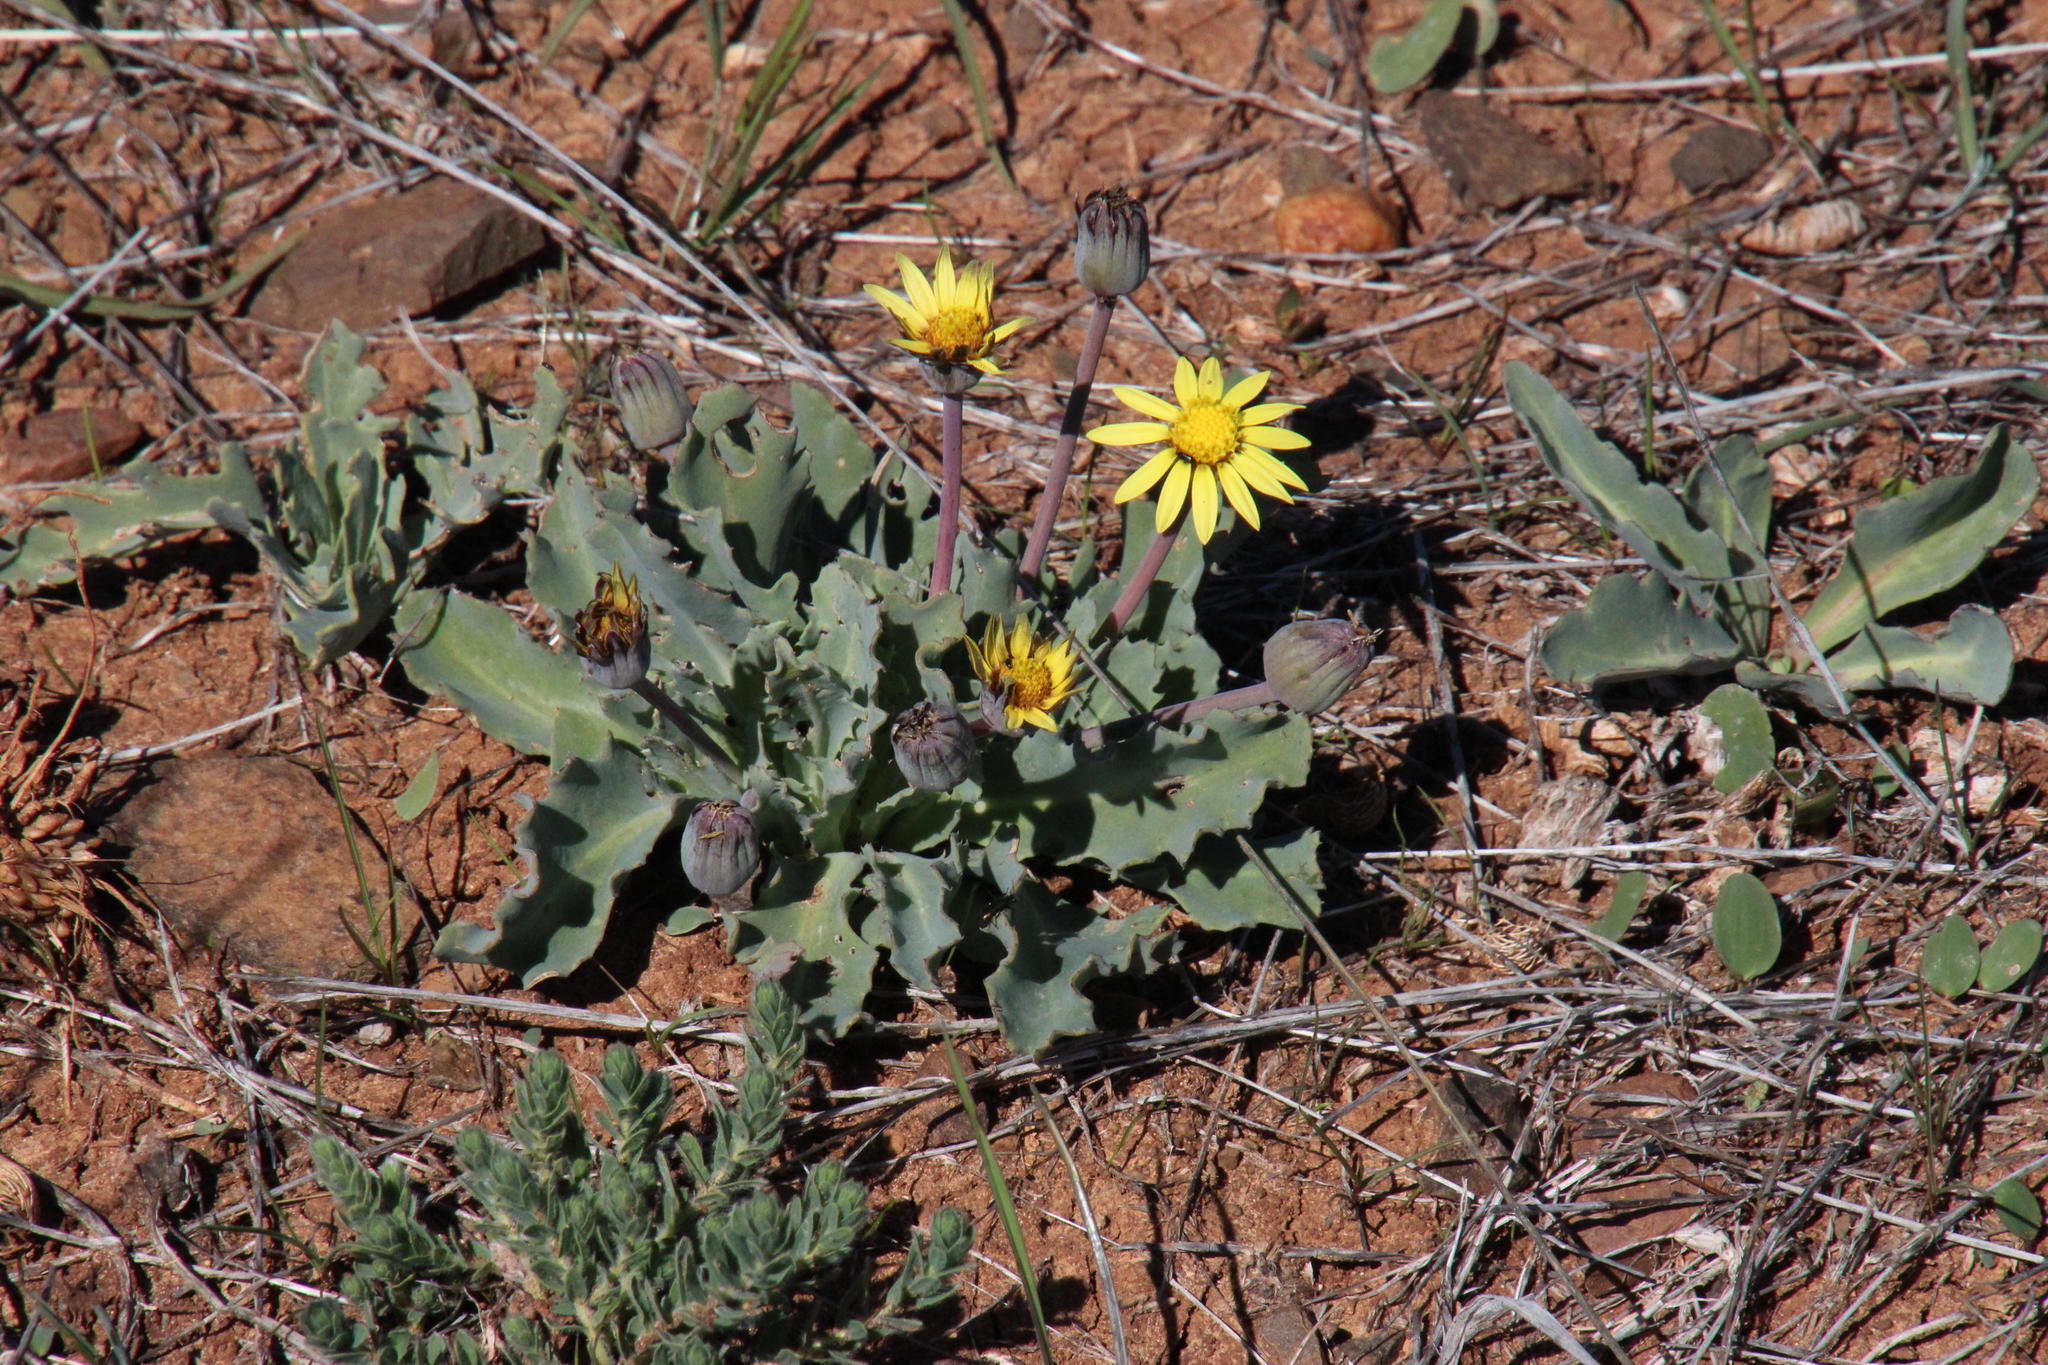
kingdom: Plantae
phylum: Tracheophyta
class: Magnoliopsida
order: Asterales
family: Asteraceae
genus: Othonna
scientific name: Othonna auriculifolia
